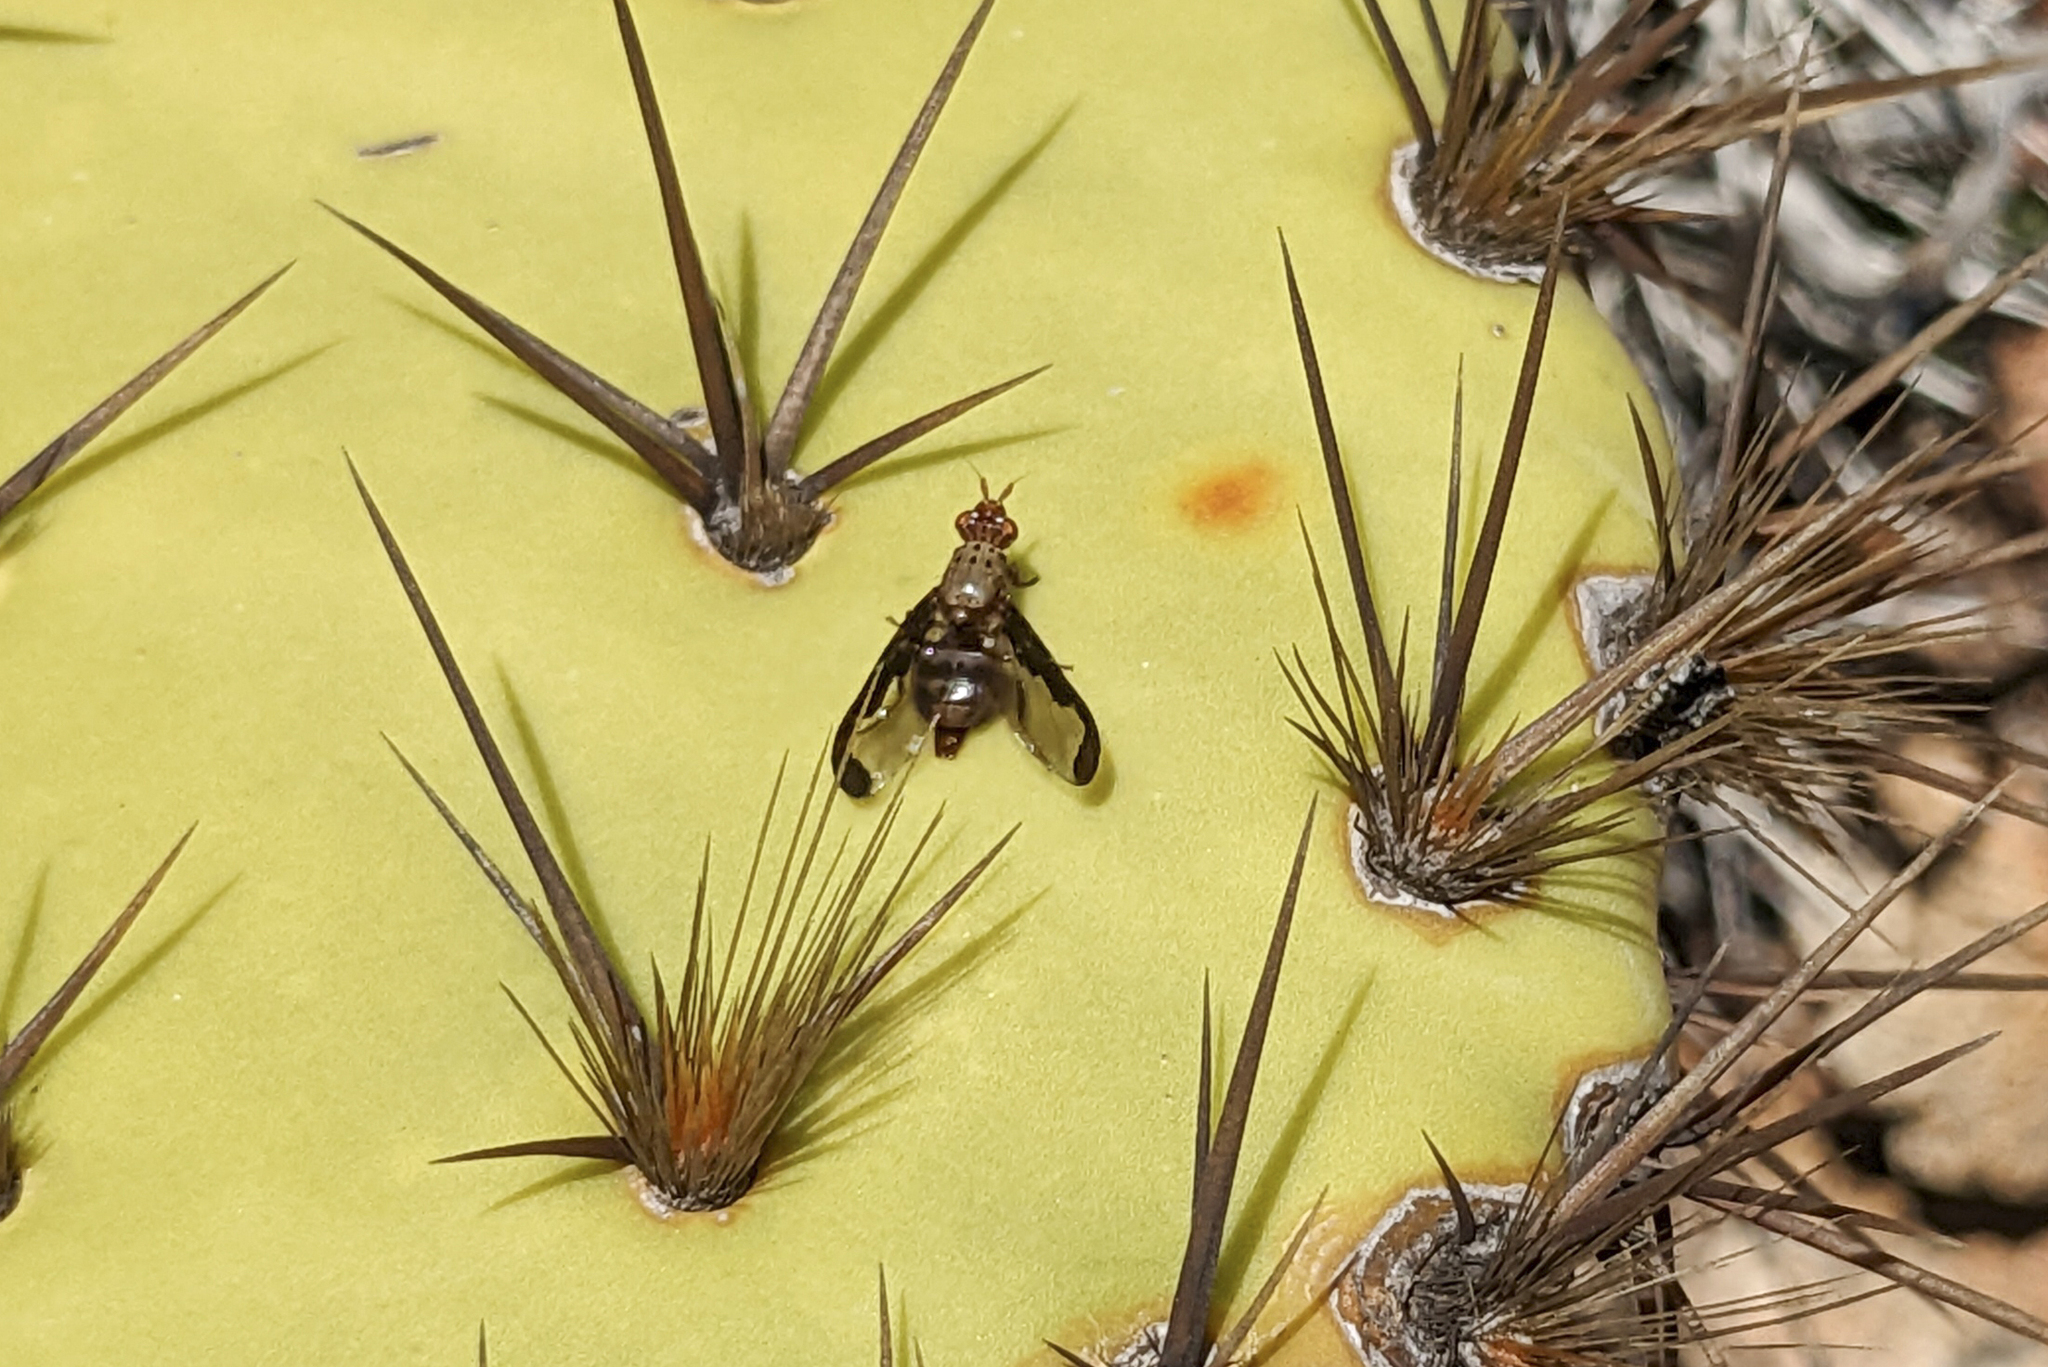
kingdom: Animalia
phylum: Arthropoda
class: Insecta
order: Diptera
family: Ulidiidae
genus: Diacrita
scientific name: Diacrita costalis
